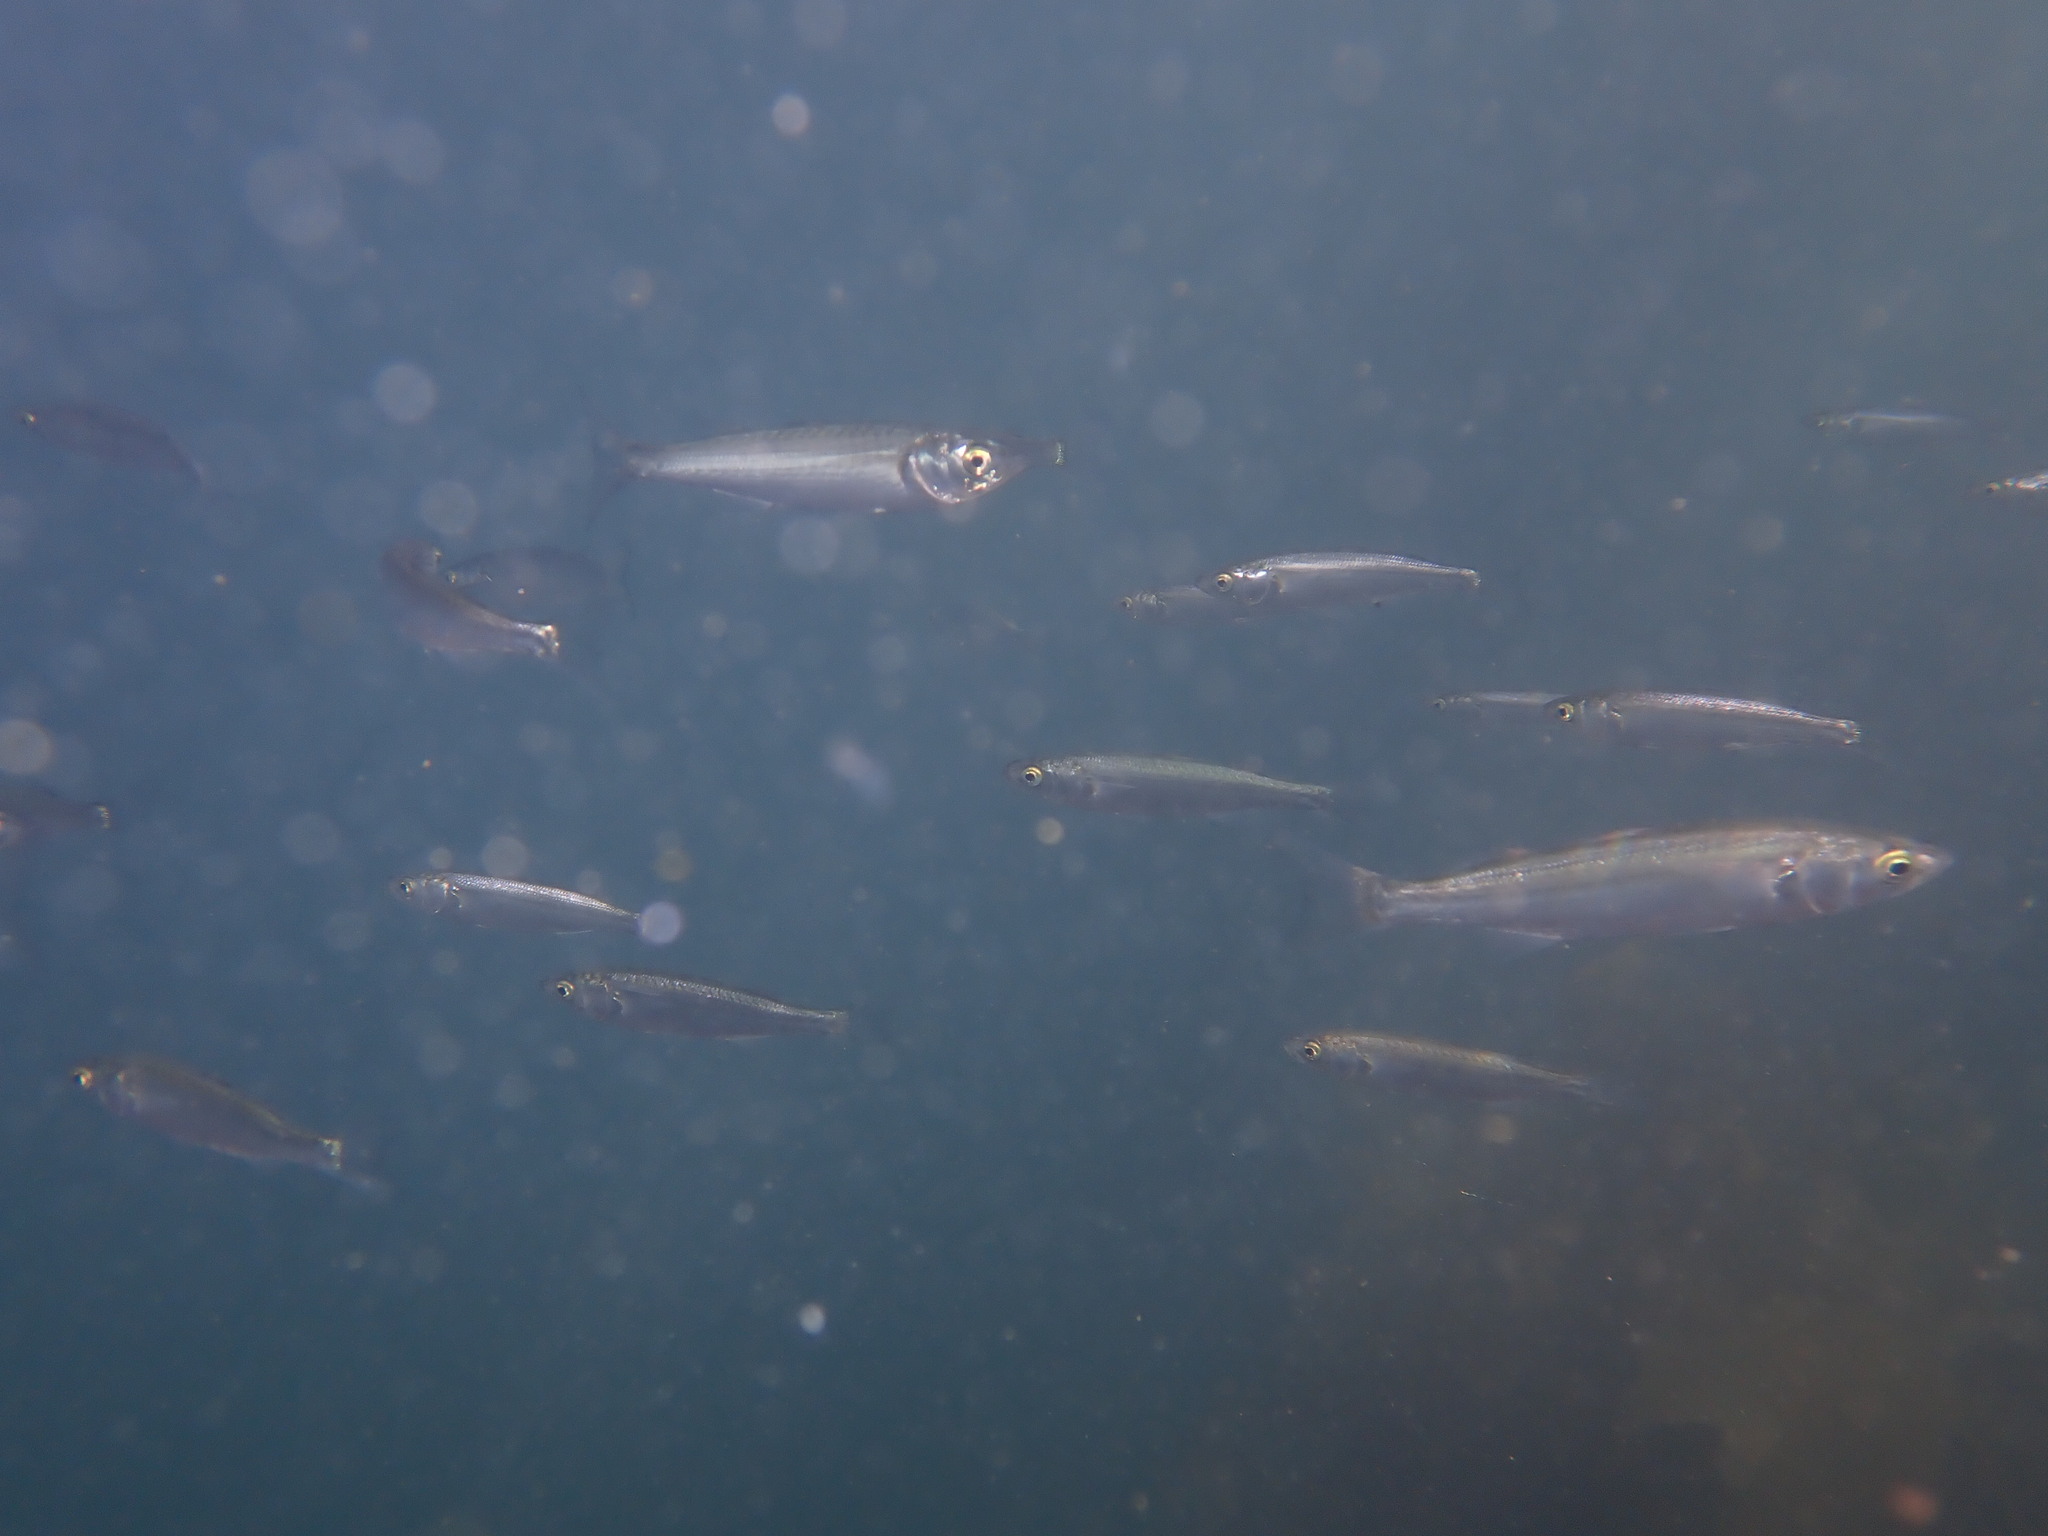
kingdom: Animalia
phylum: Chordata
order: Mugiliformes
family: Mugilidae
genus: Aldrichetta
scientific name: Aldrichetta forsteri
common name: Yellow-eye mullet
